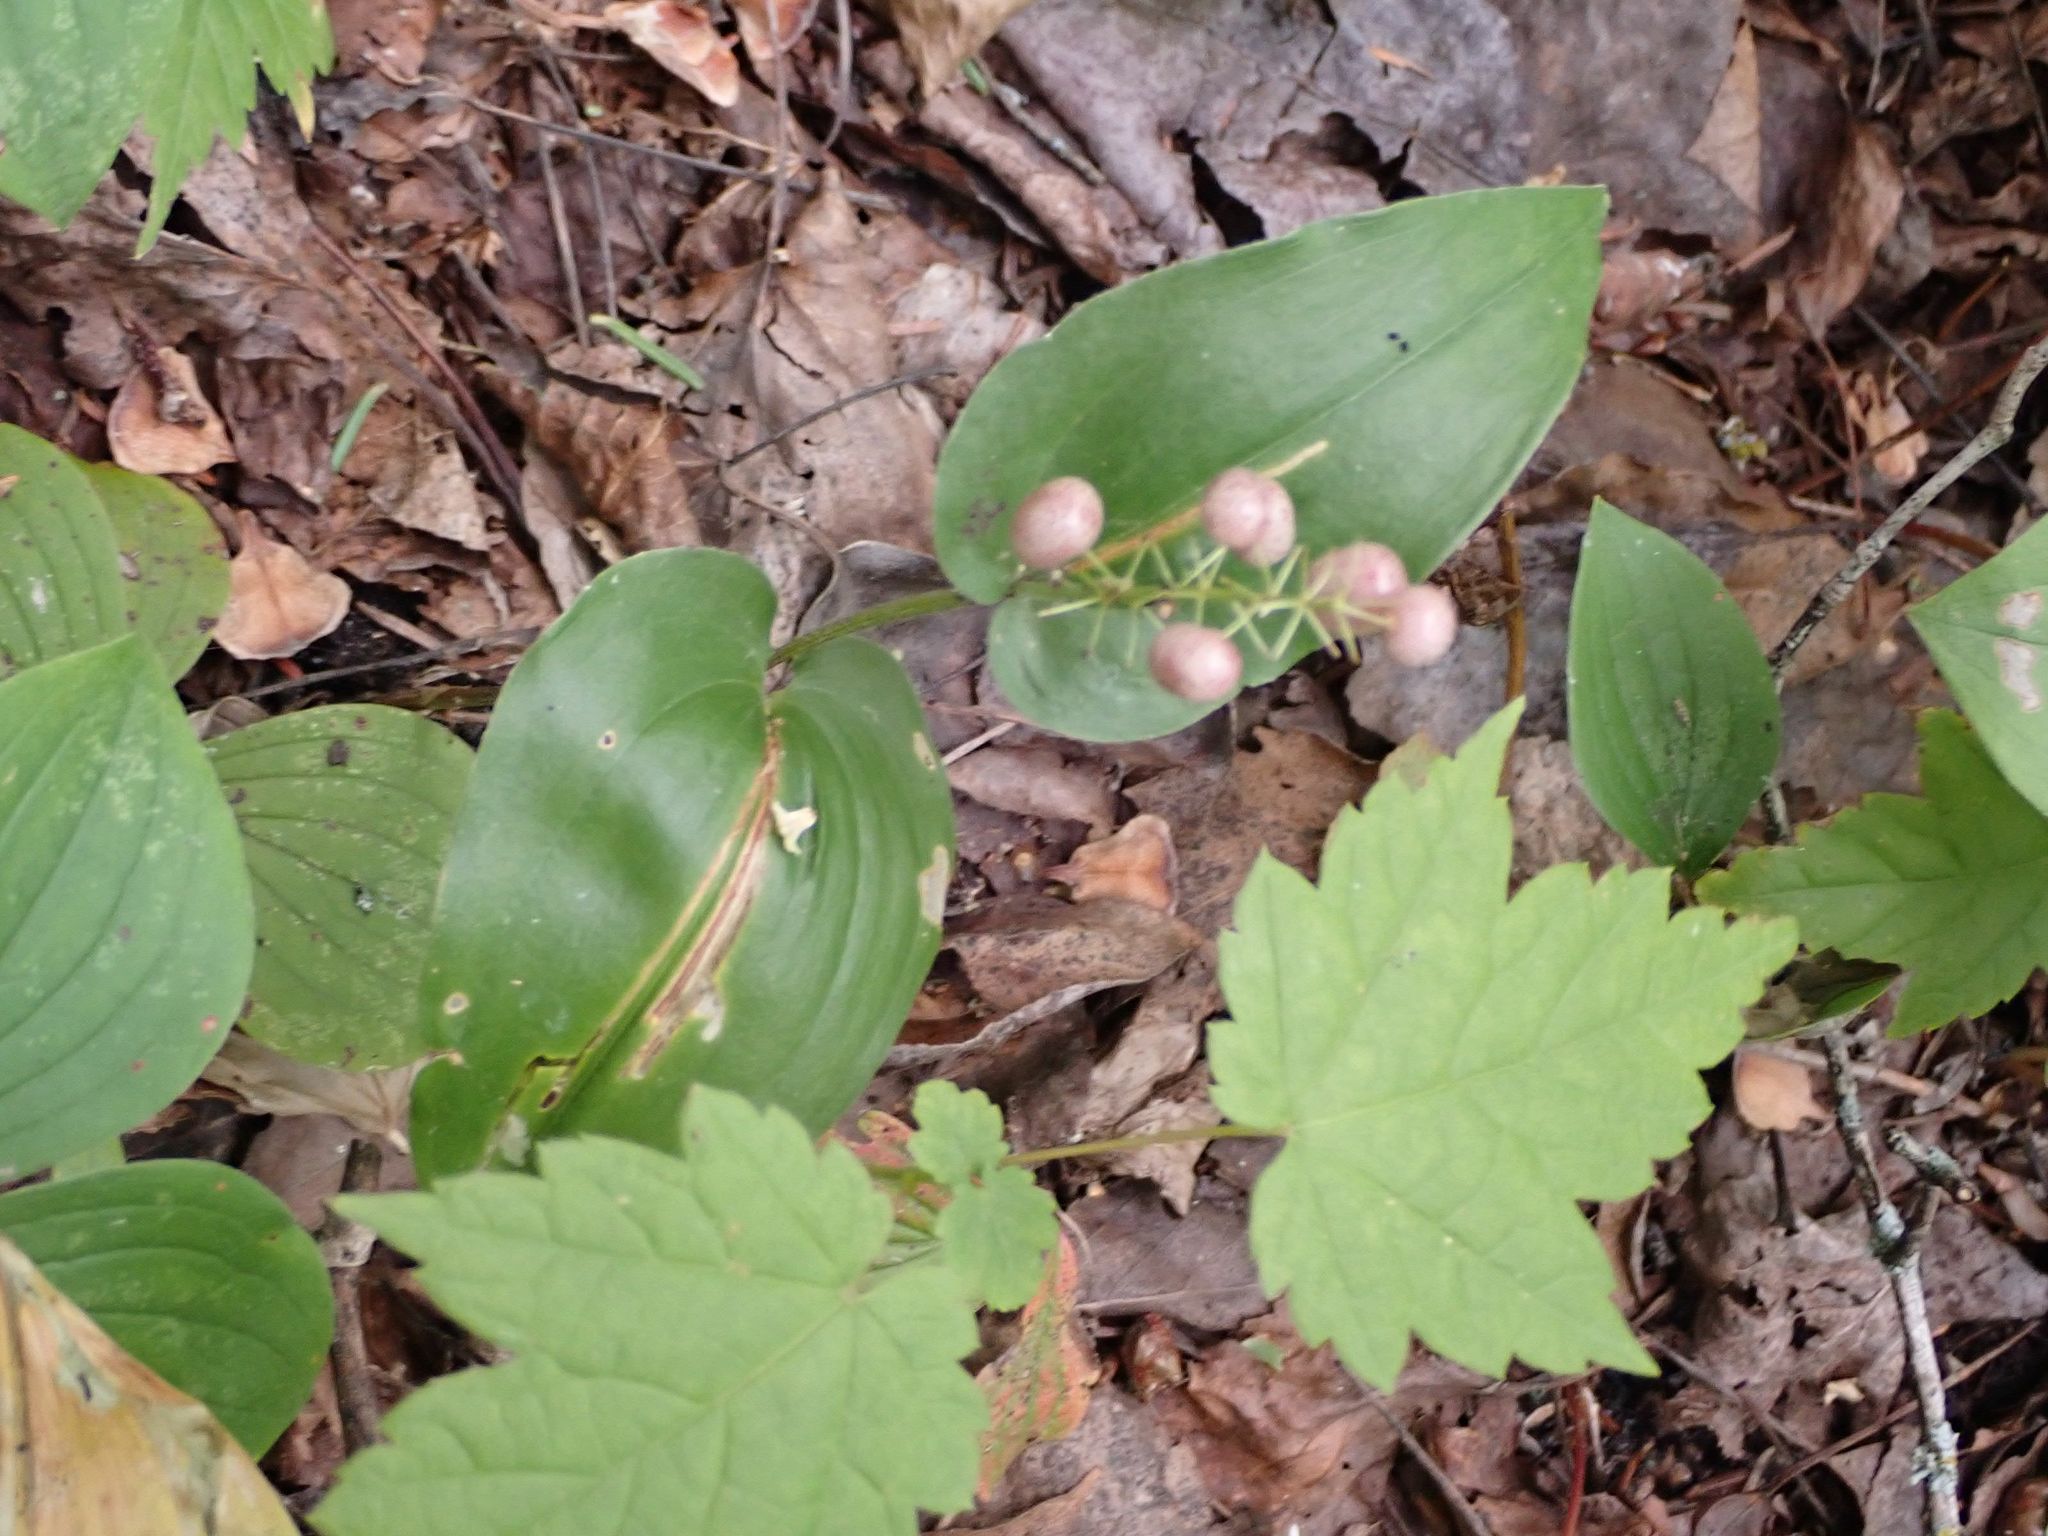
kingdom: Plantae
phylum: Tracheophyta
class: Liliopsida
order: Asparagales
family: Asparagaceae
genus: Maianthemum
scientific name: Maianthemum canadense
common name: False lily-of-the-valley
